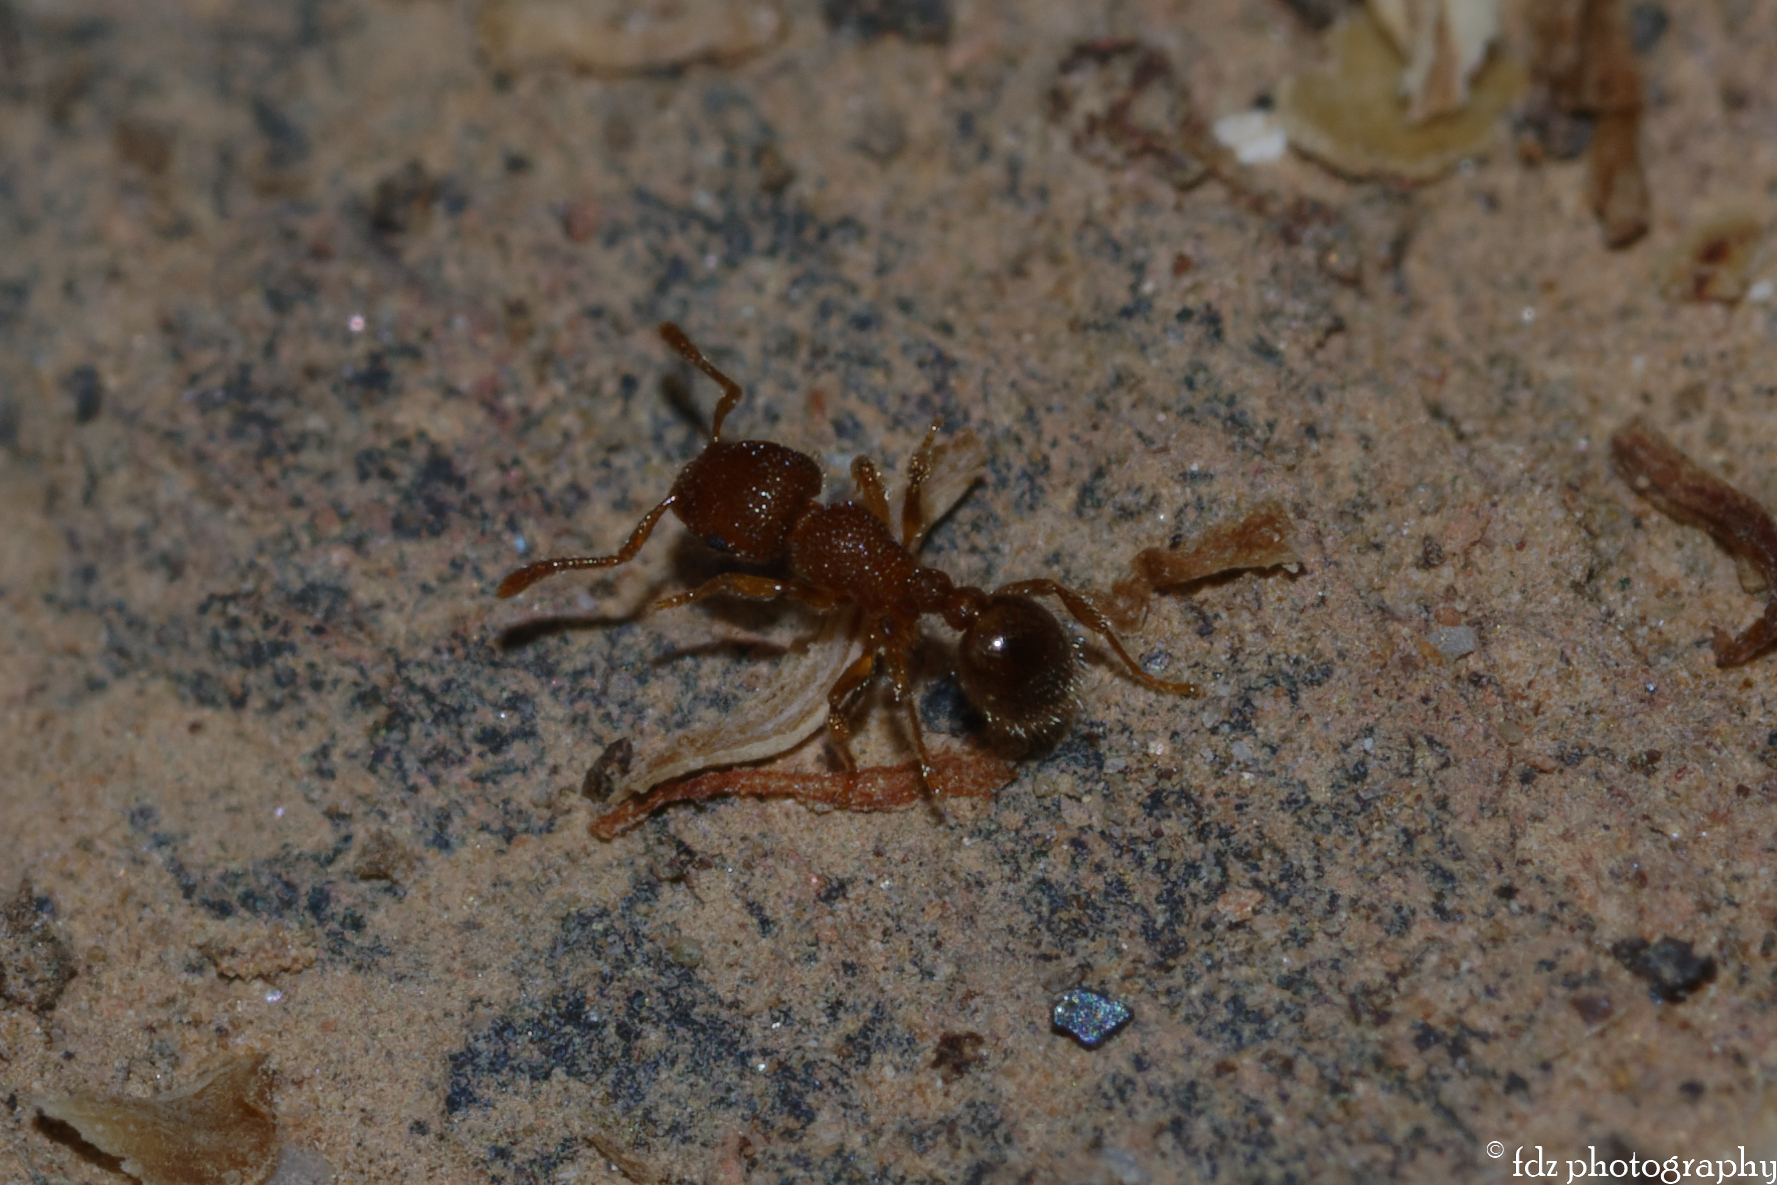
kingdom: Animalia
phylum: Arthropoda
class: Insecta
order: Hymenoptera
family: Formicidae
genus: Tetramorium
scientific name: Tetramorium lanuginosum
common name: Ant
